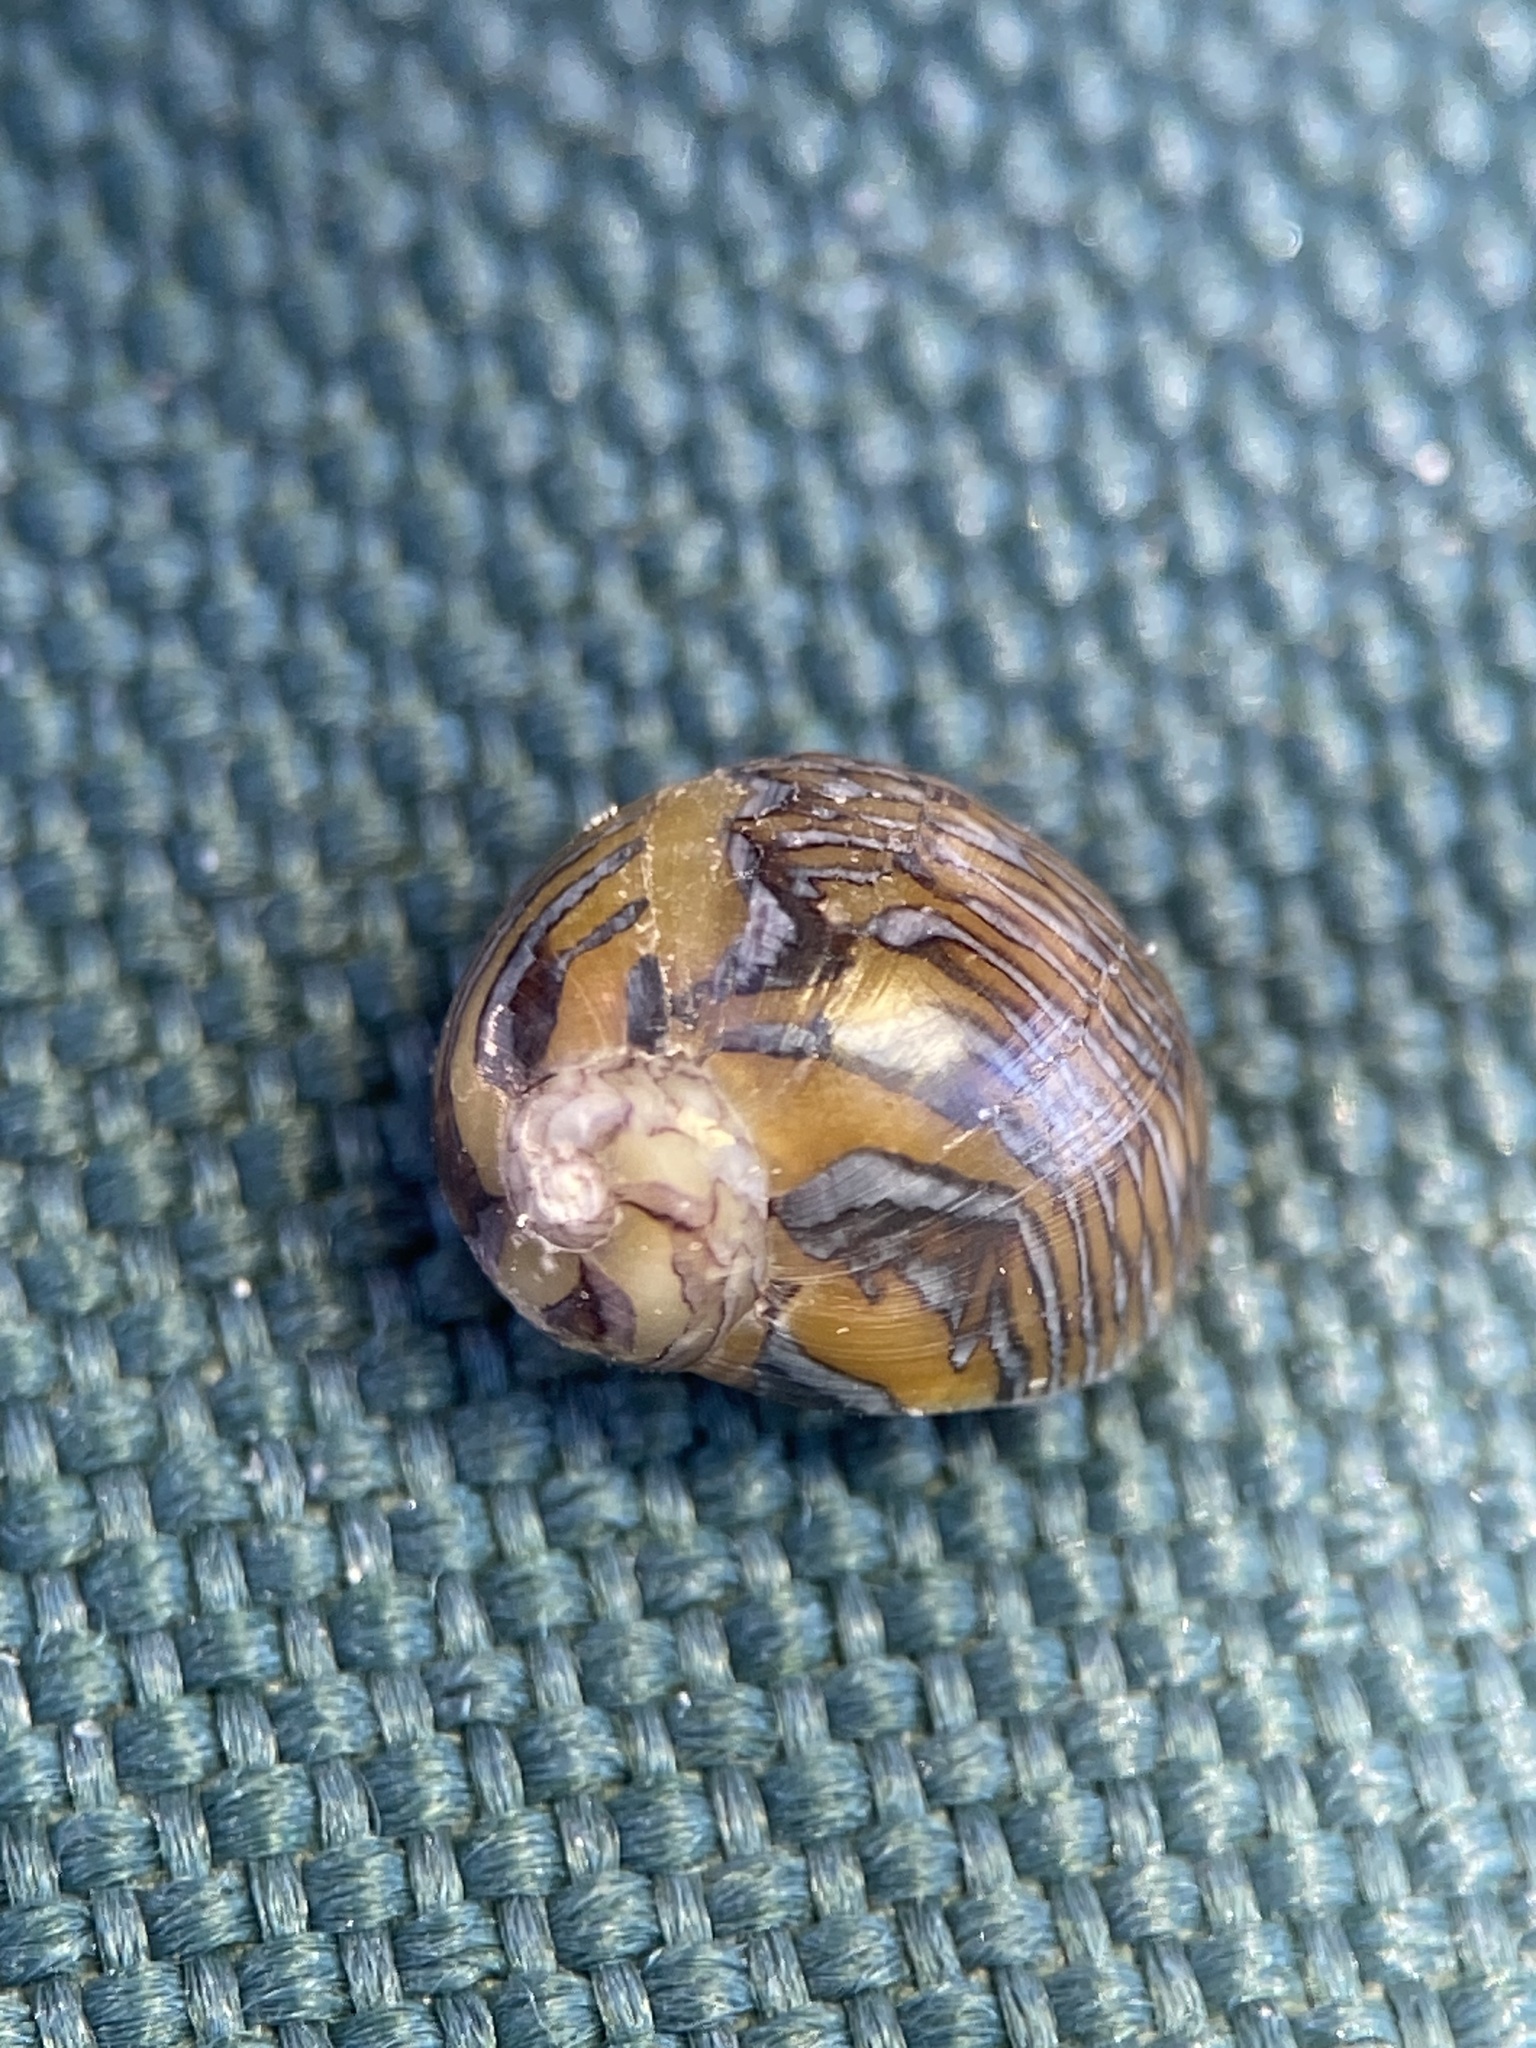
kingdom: Animalia
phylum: Mollusca
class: Gastropoda
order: Cycloneritida
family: Neritidae
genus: Vitta
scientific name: Vitta luteofasciata
